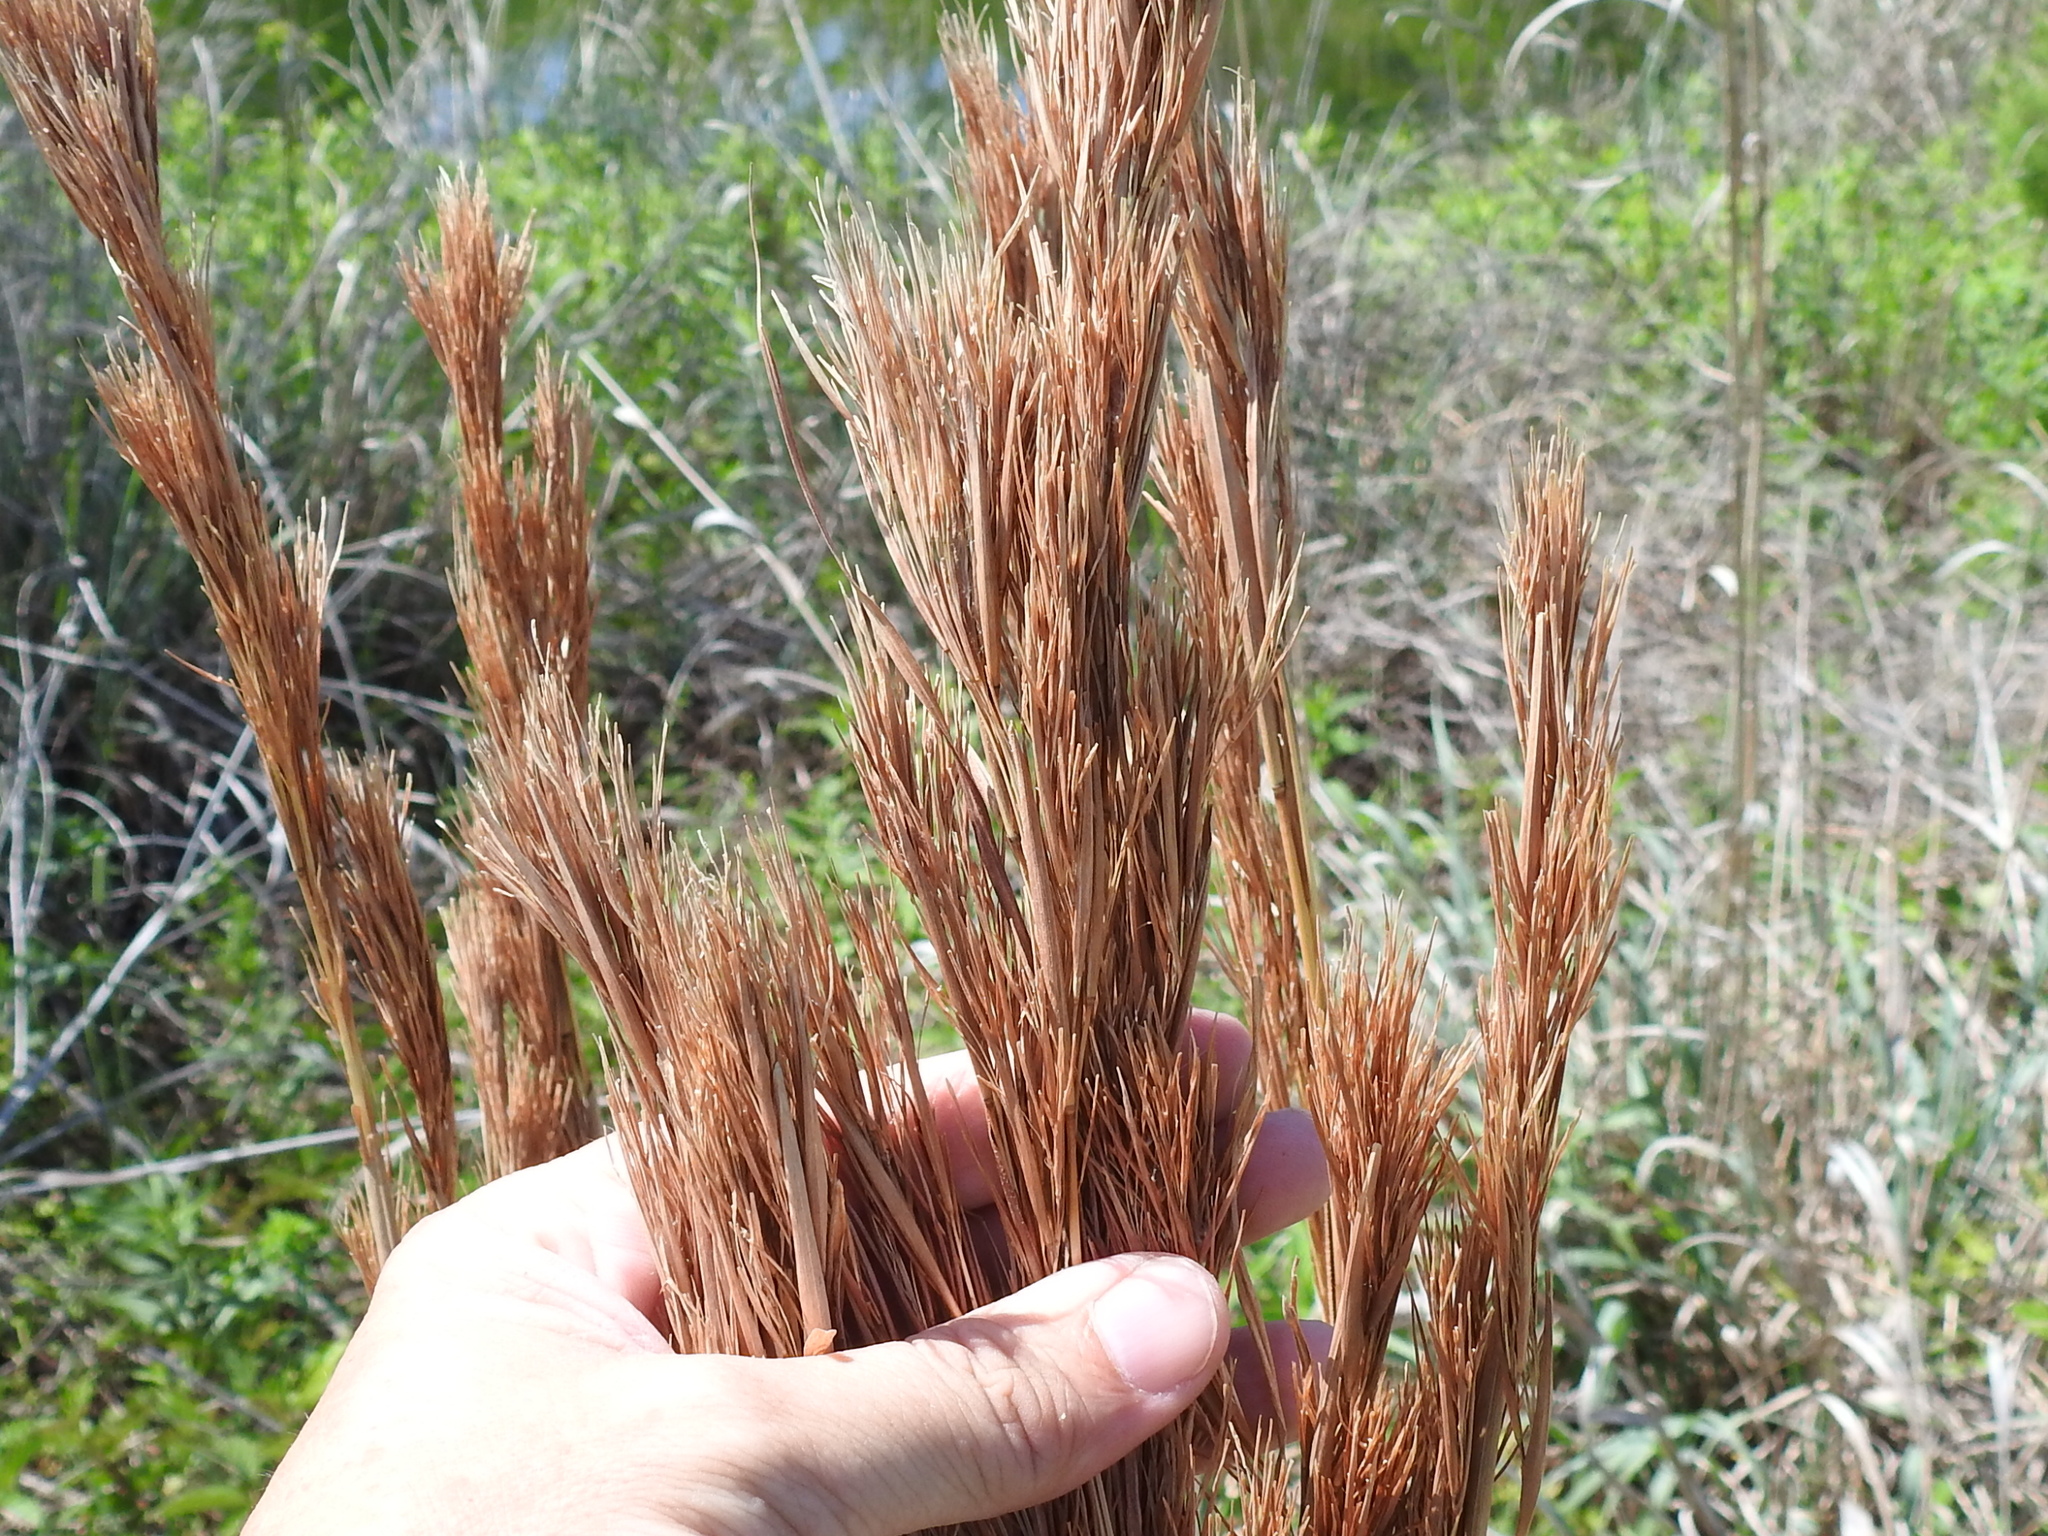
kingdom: Plantae
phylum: Tracheophyta
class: Liliopsida
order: Poales
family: Poaceae
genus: Andropogon
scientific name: Andropogon tenuispatheus
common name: Bushy bluestem
